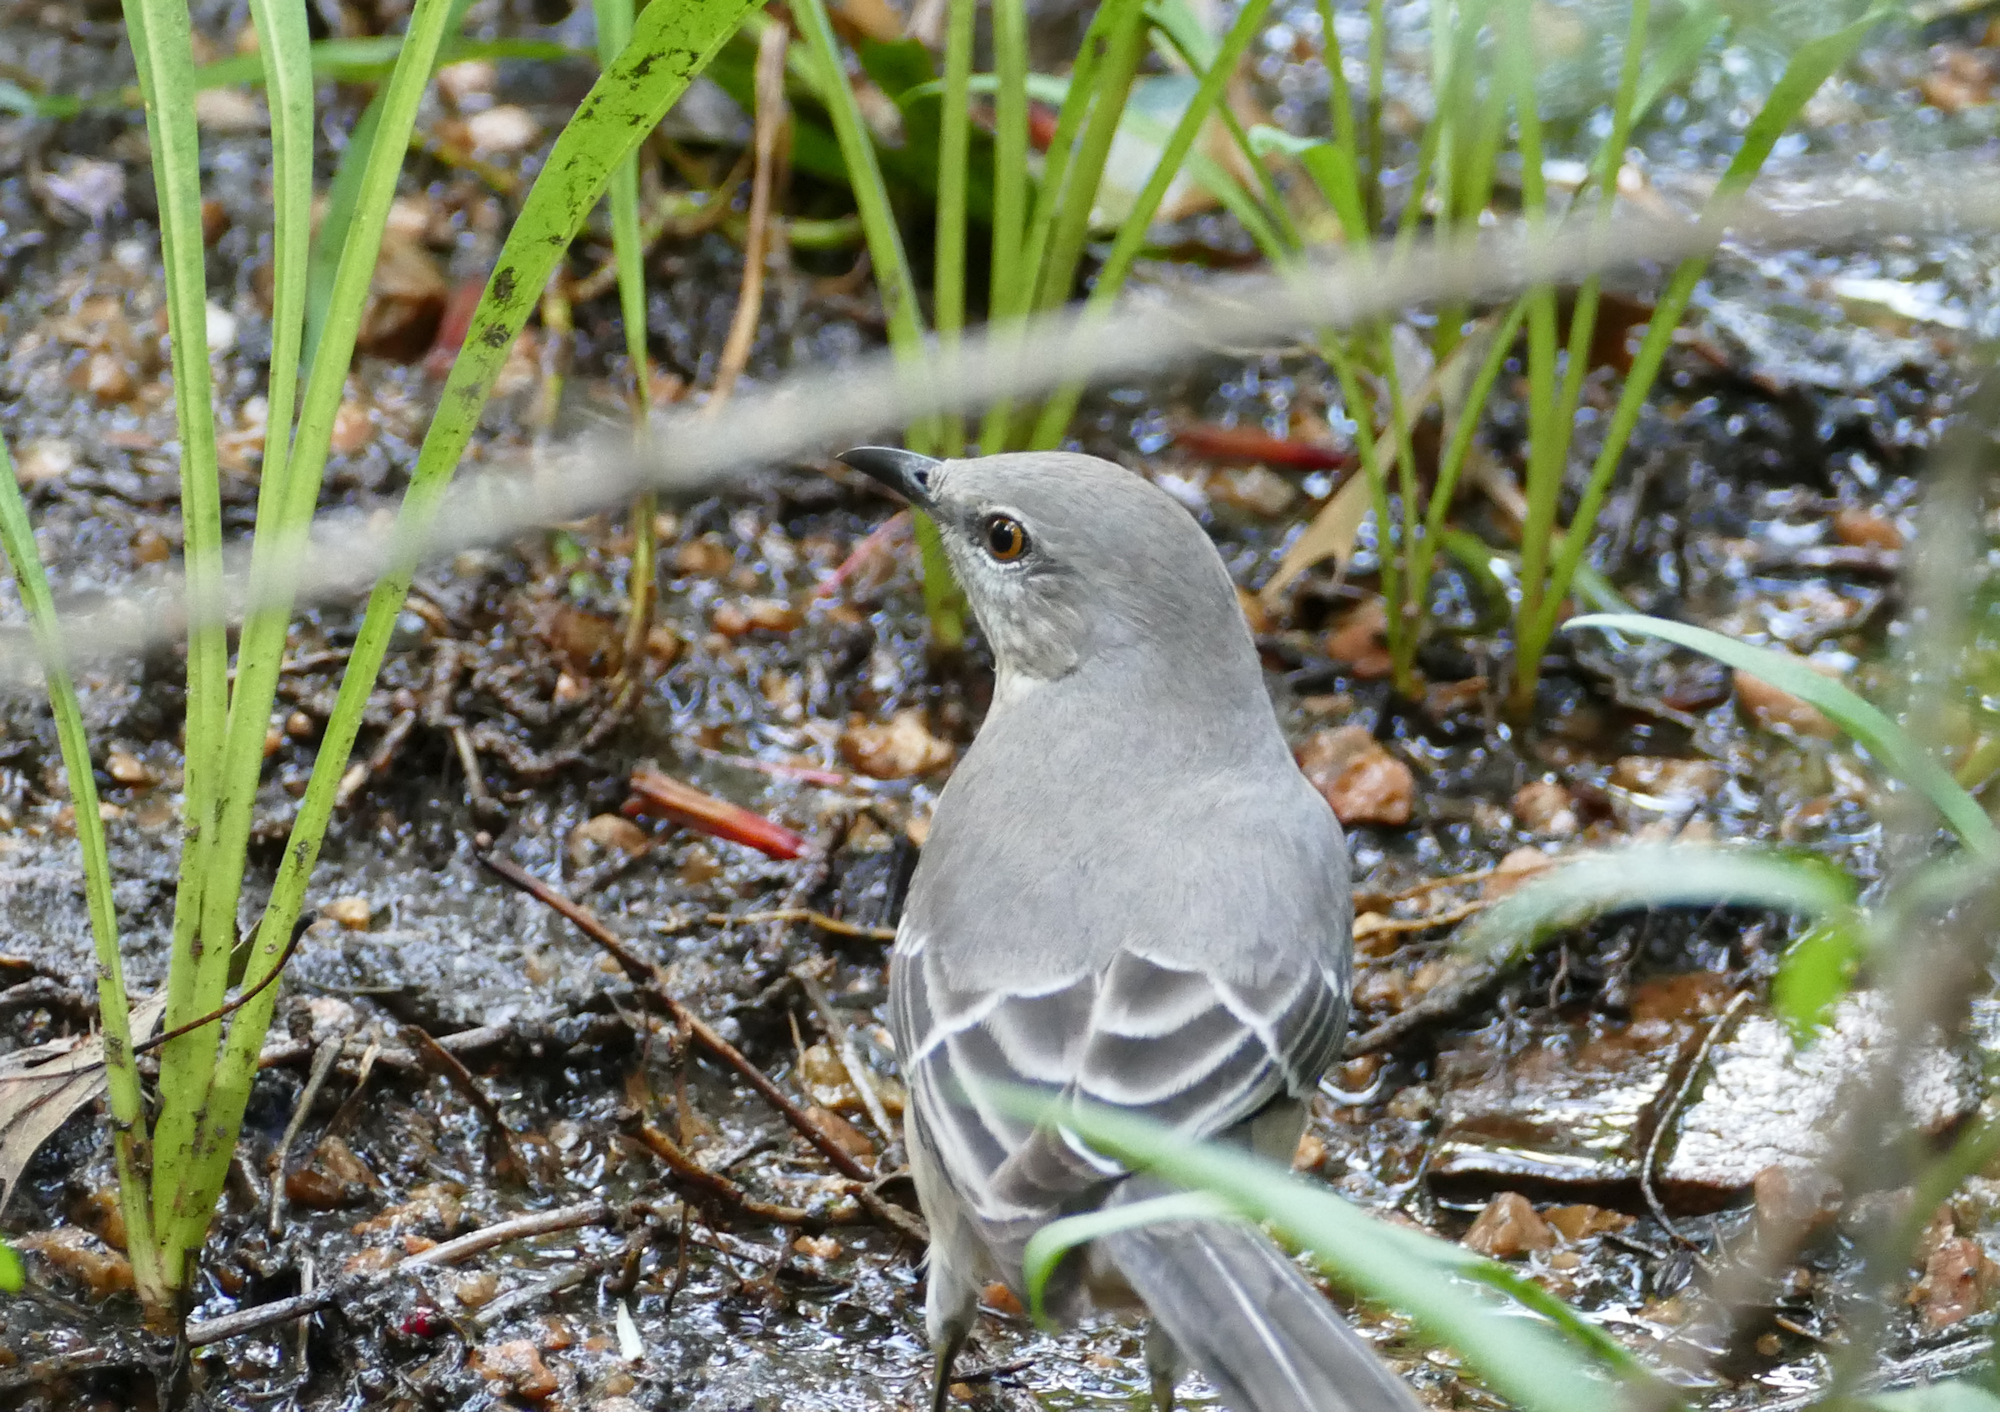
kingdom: Animalia
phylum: Chordata
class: Aves
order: Passeriformes
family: Mimidae
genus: Mimus
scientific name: Mimus polyglottos
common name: Northern mockingbird
